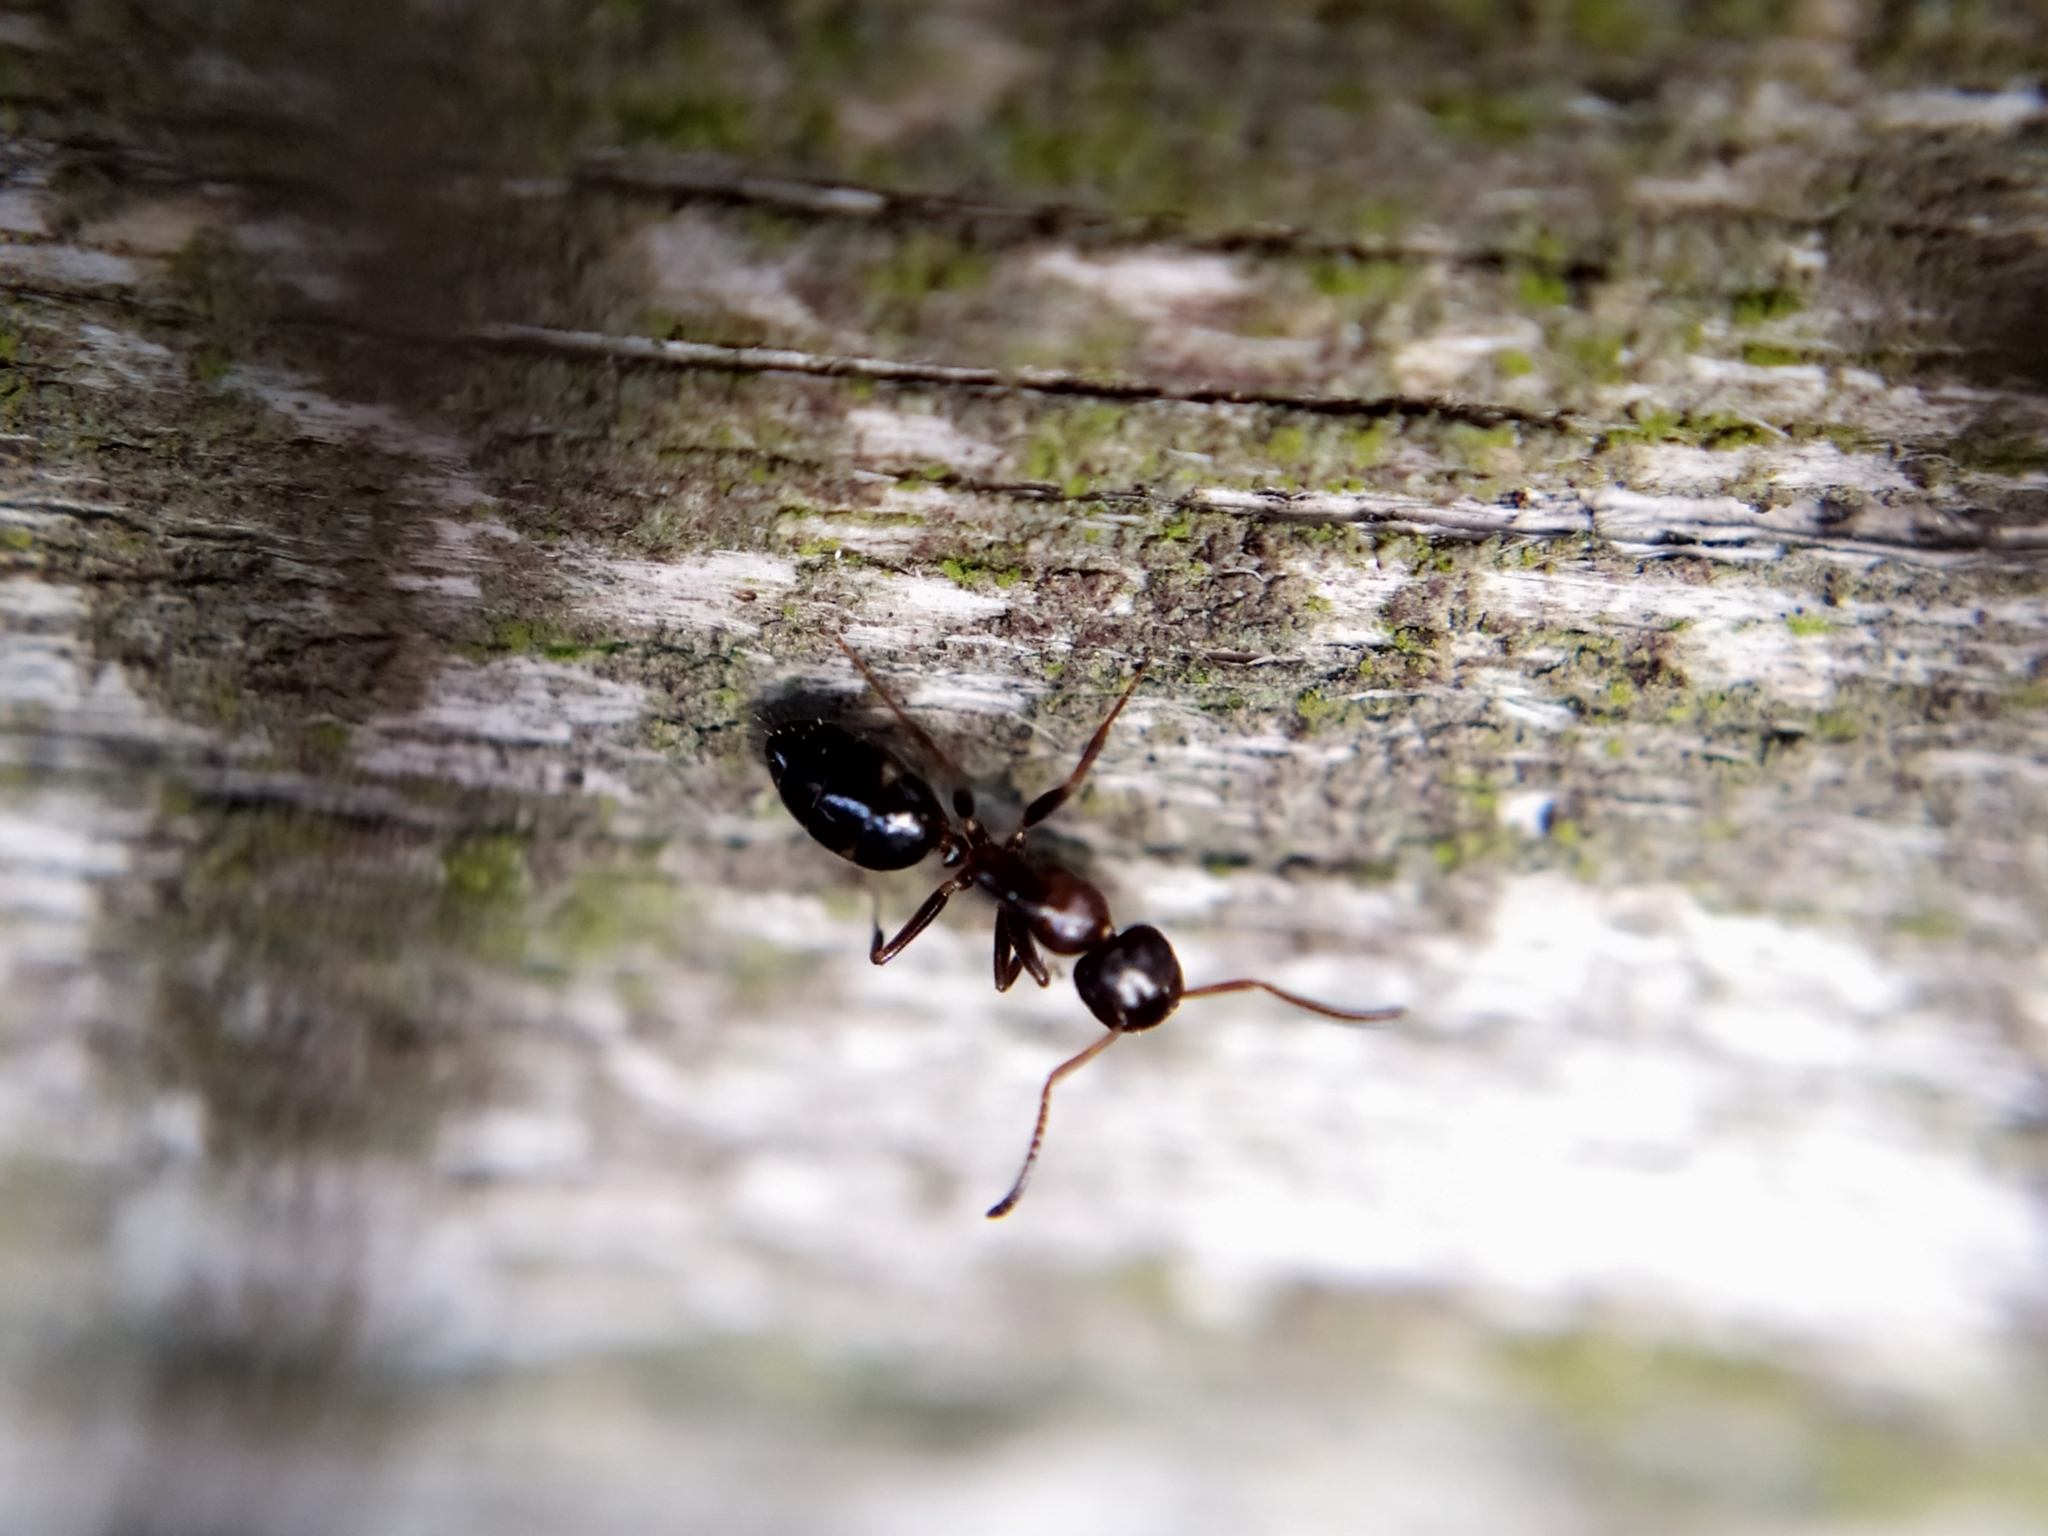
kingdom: Animalia
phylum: Arthropoda
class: Insecta
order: Hymenoptera
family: Formicidae
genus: Camponotus
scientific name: Camponotus truncatus
